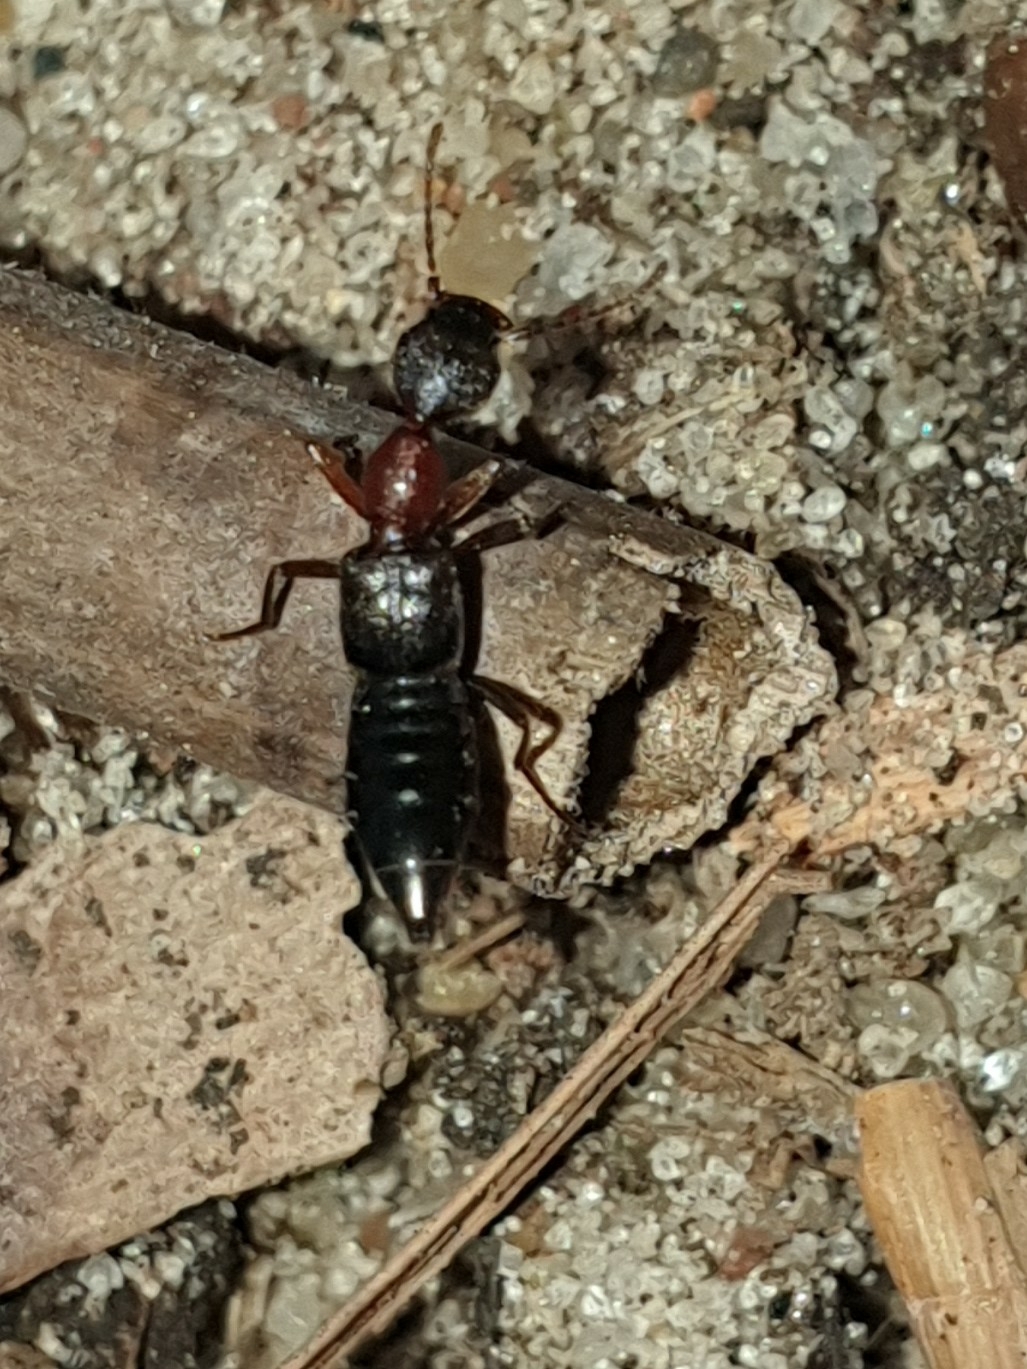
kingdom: Animalia
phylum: Arthropoda
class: Insecta
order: Coleoptera
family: Staphylinidae
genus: Rugilus
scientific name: Rugilus angustatus
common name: Staph beetle
